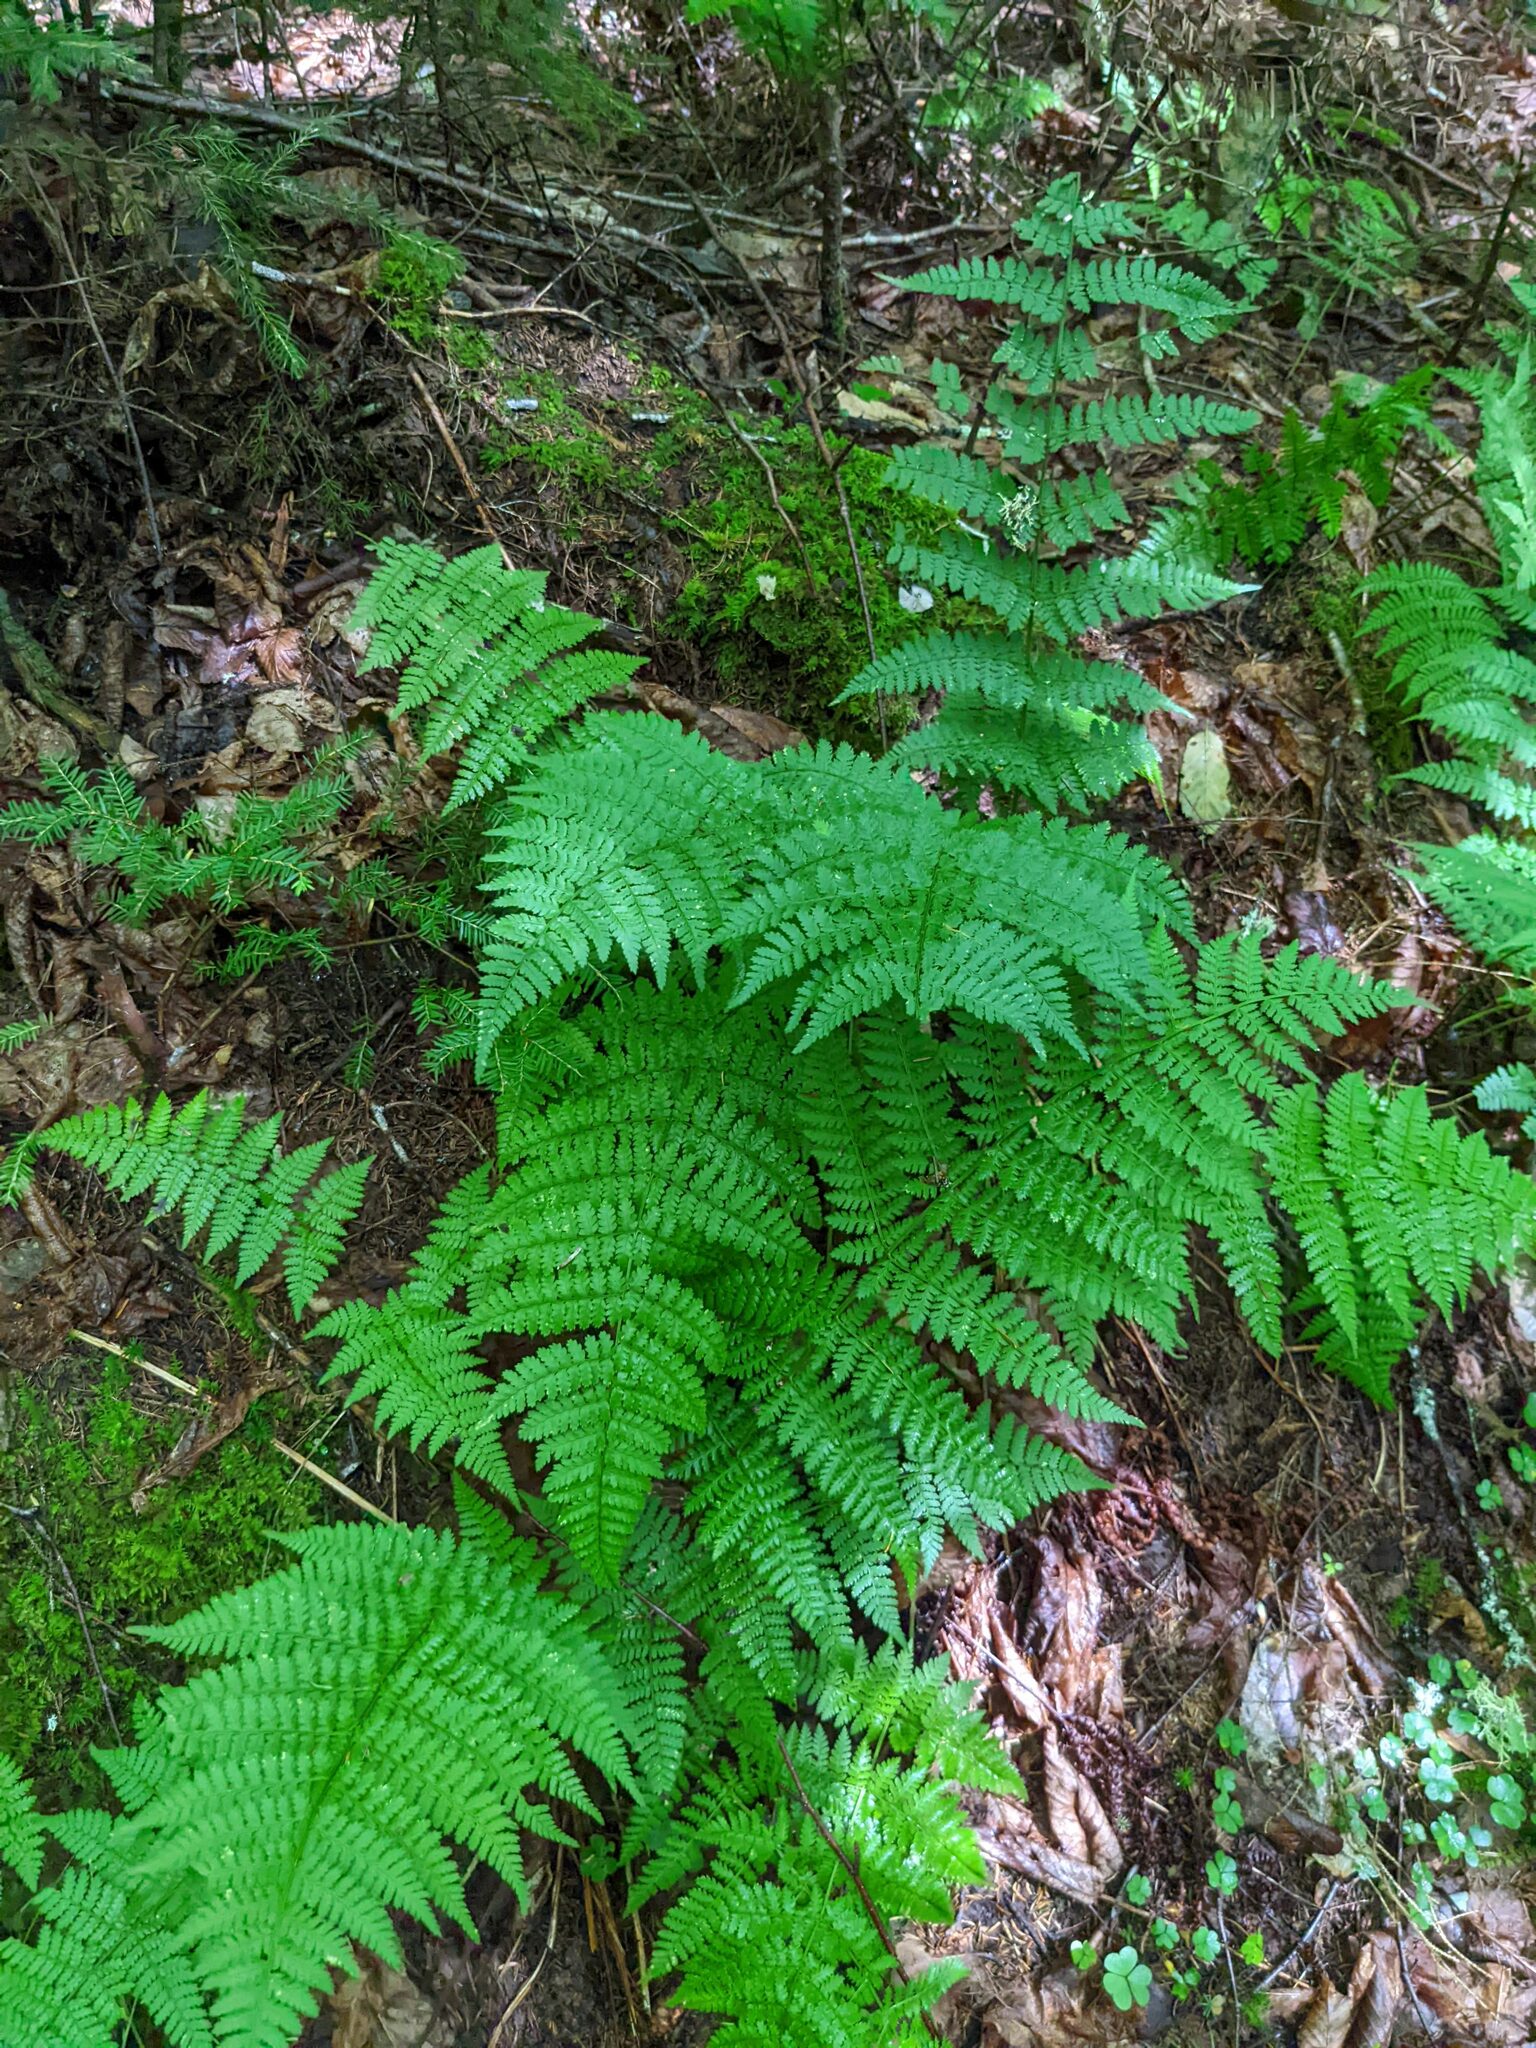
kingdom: Plantae
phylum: Tracheophyta
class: Polypodiopsida
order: Polypodiales
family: Dryopteridaceae
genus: Dryopteris
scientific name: Dryopteris intermedia
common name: Evergreen wood fern
